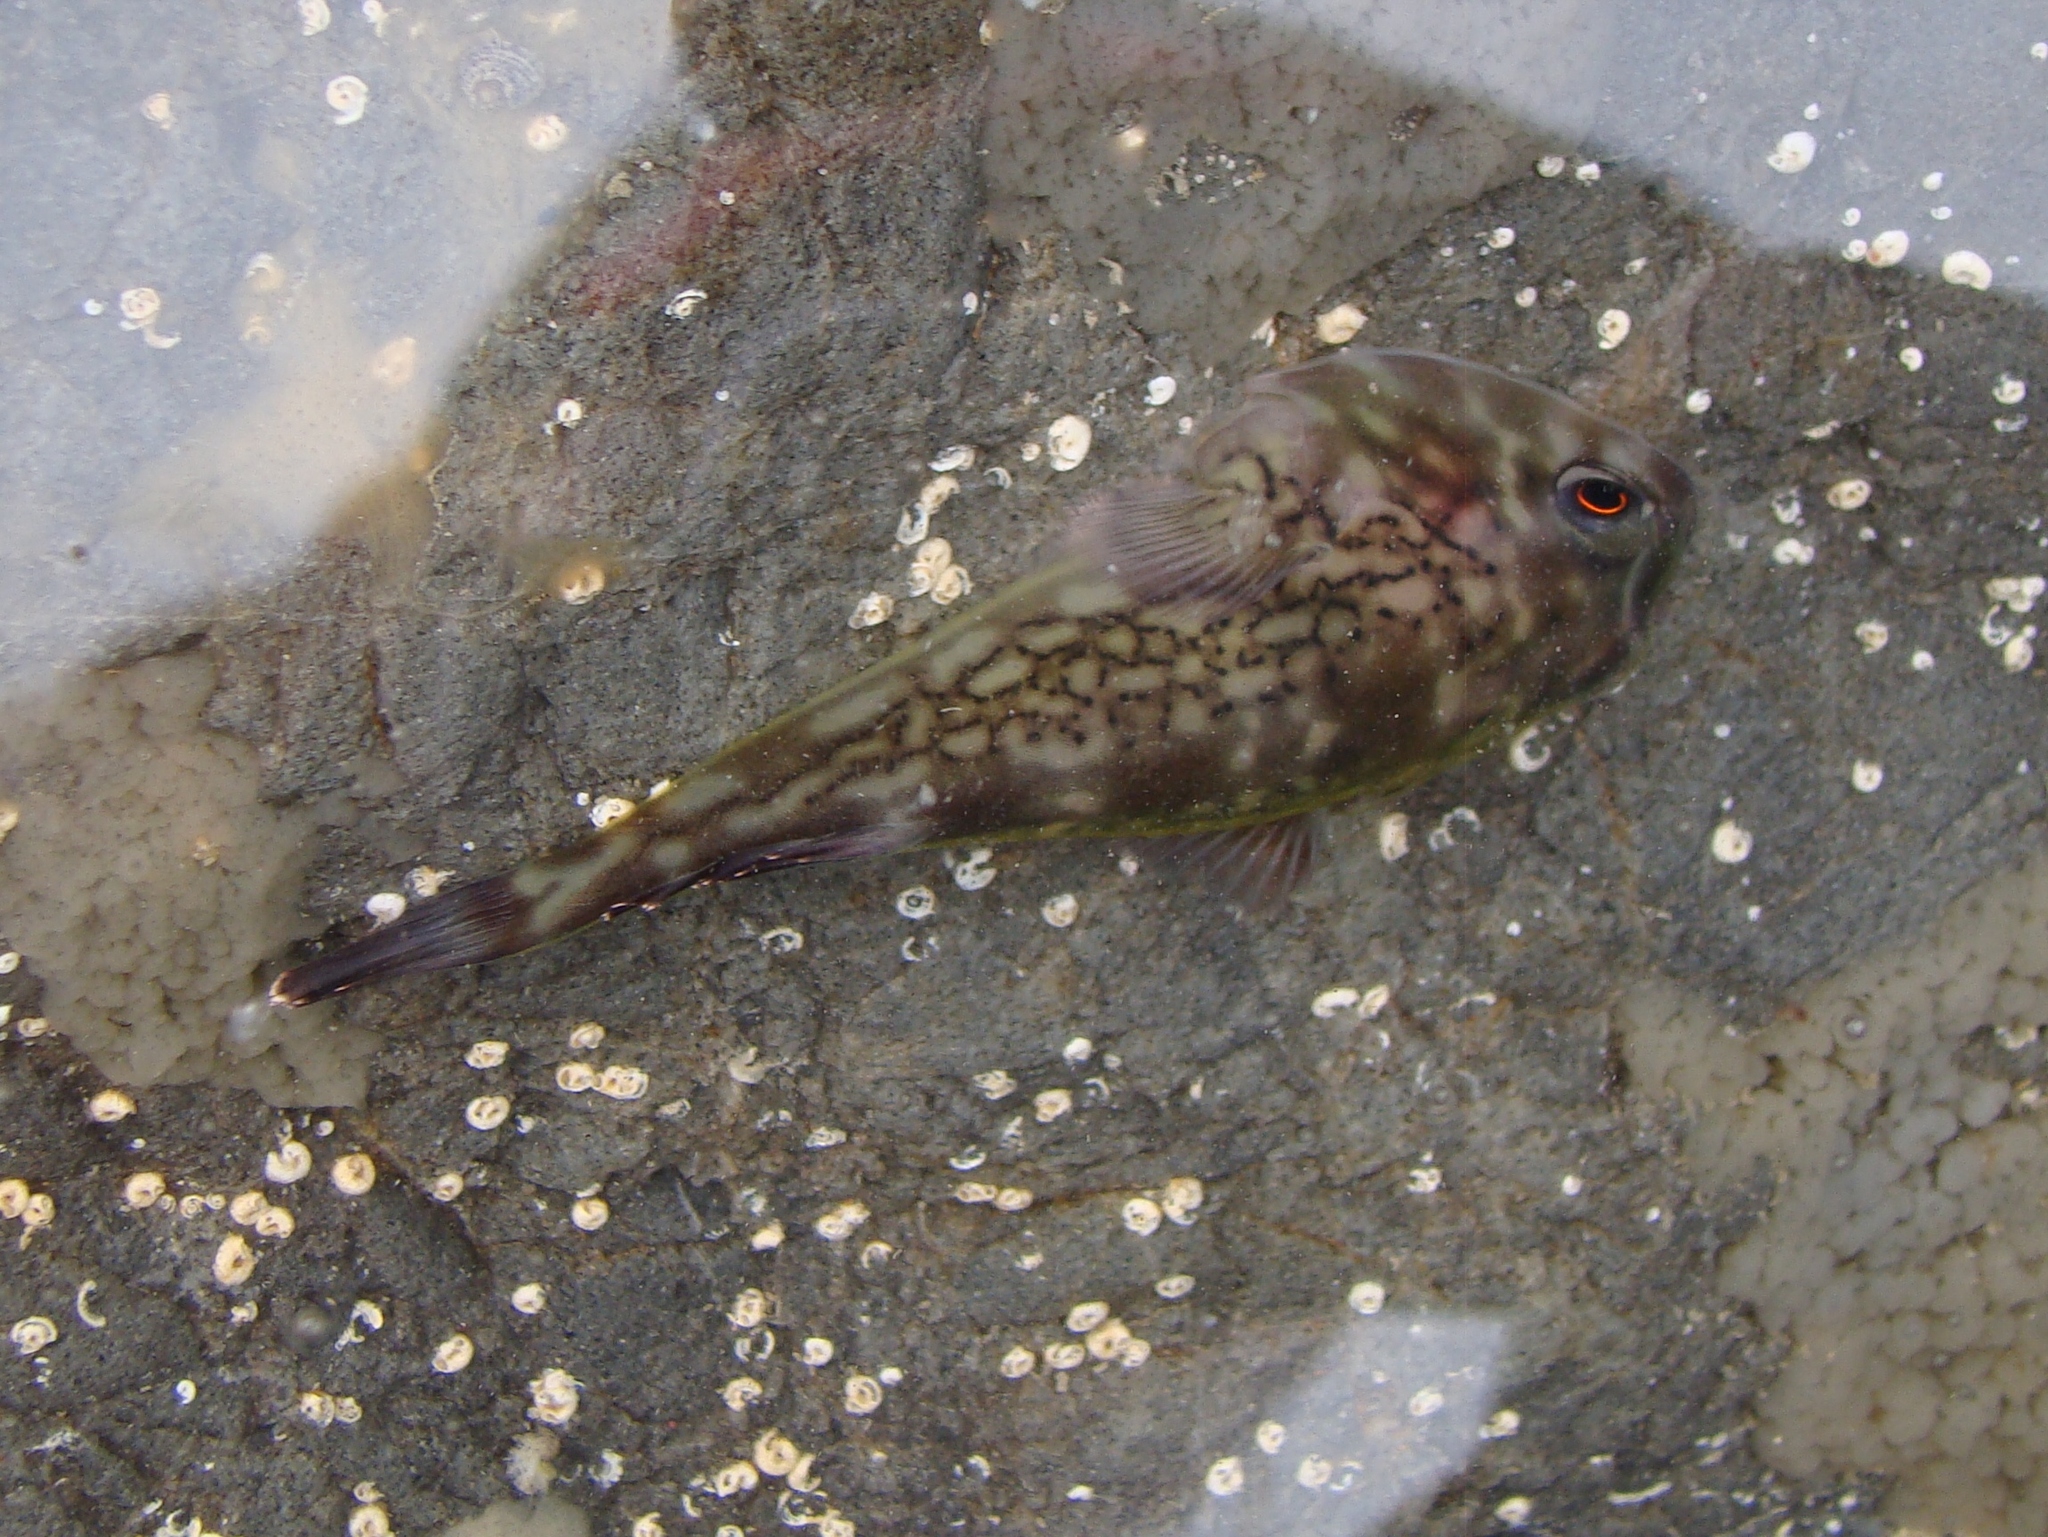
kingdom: Animalia
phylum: Chordata
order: Gobiesociformes
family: Gobiesocidae
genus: Diplocrepis
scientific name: Diplocrepis puniceus
